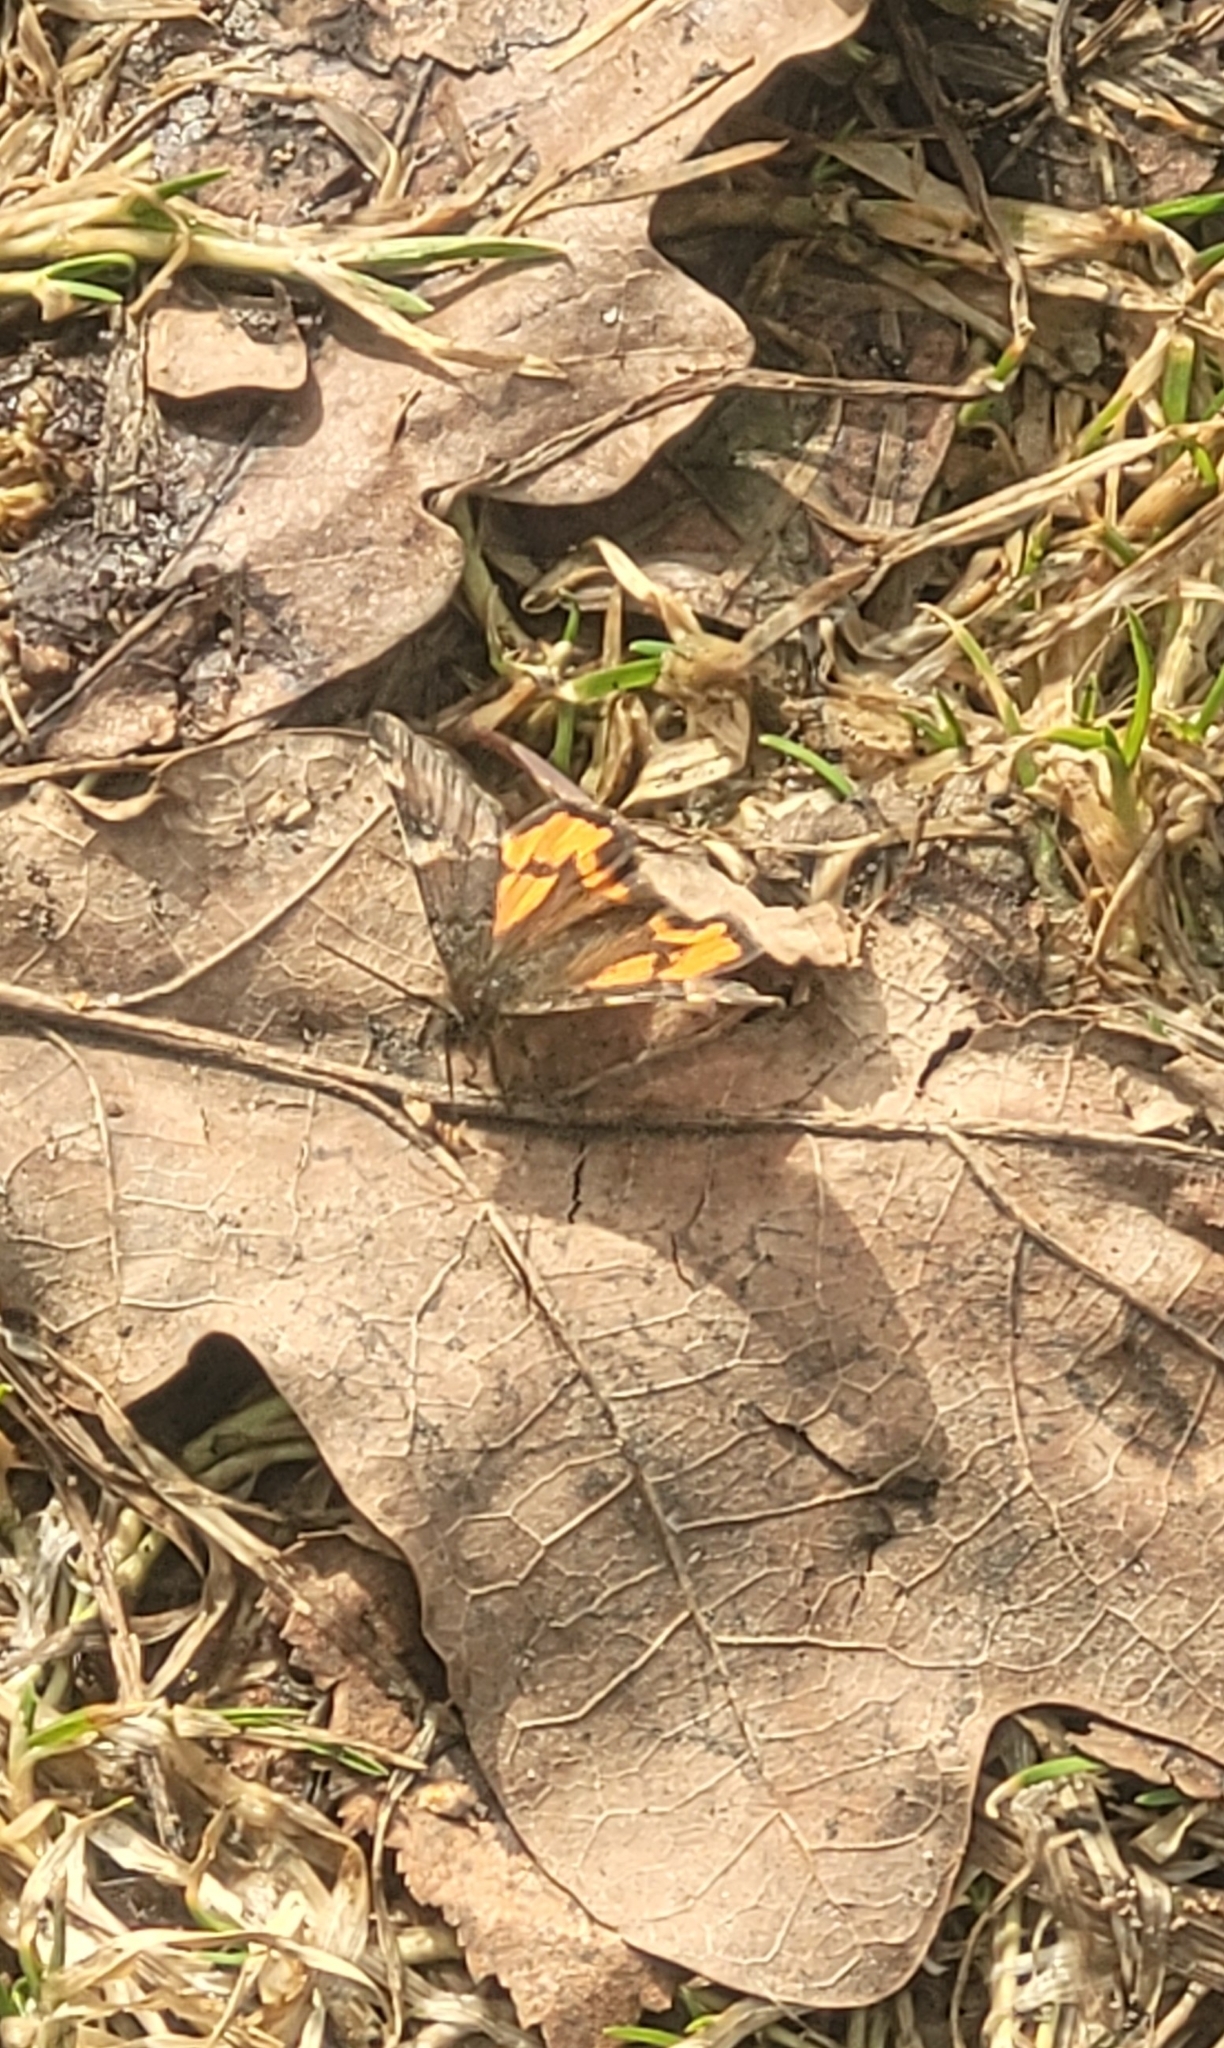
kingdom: Animalia
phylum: Arthropoda
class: Insecta
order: Lepidoptera
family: Geometridae
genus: Archiearis
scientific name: Archiearis parthenias
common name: Orange underwing
